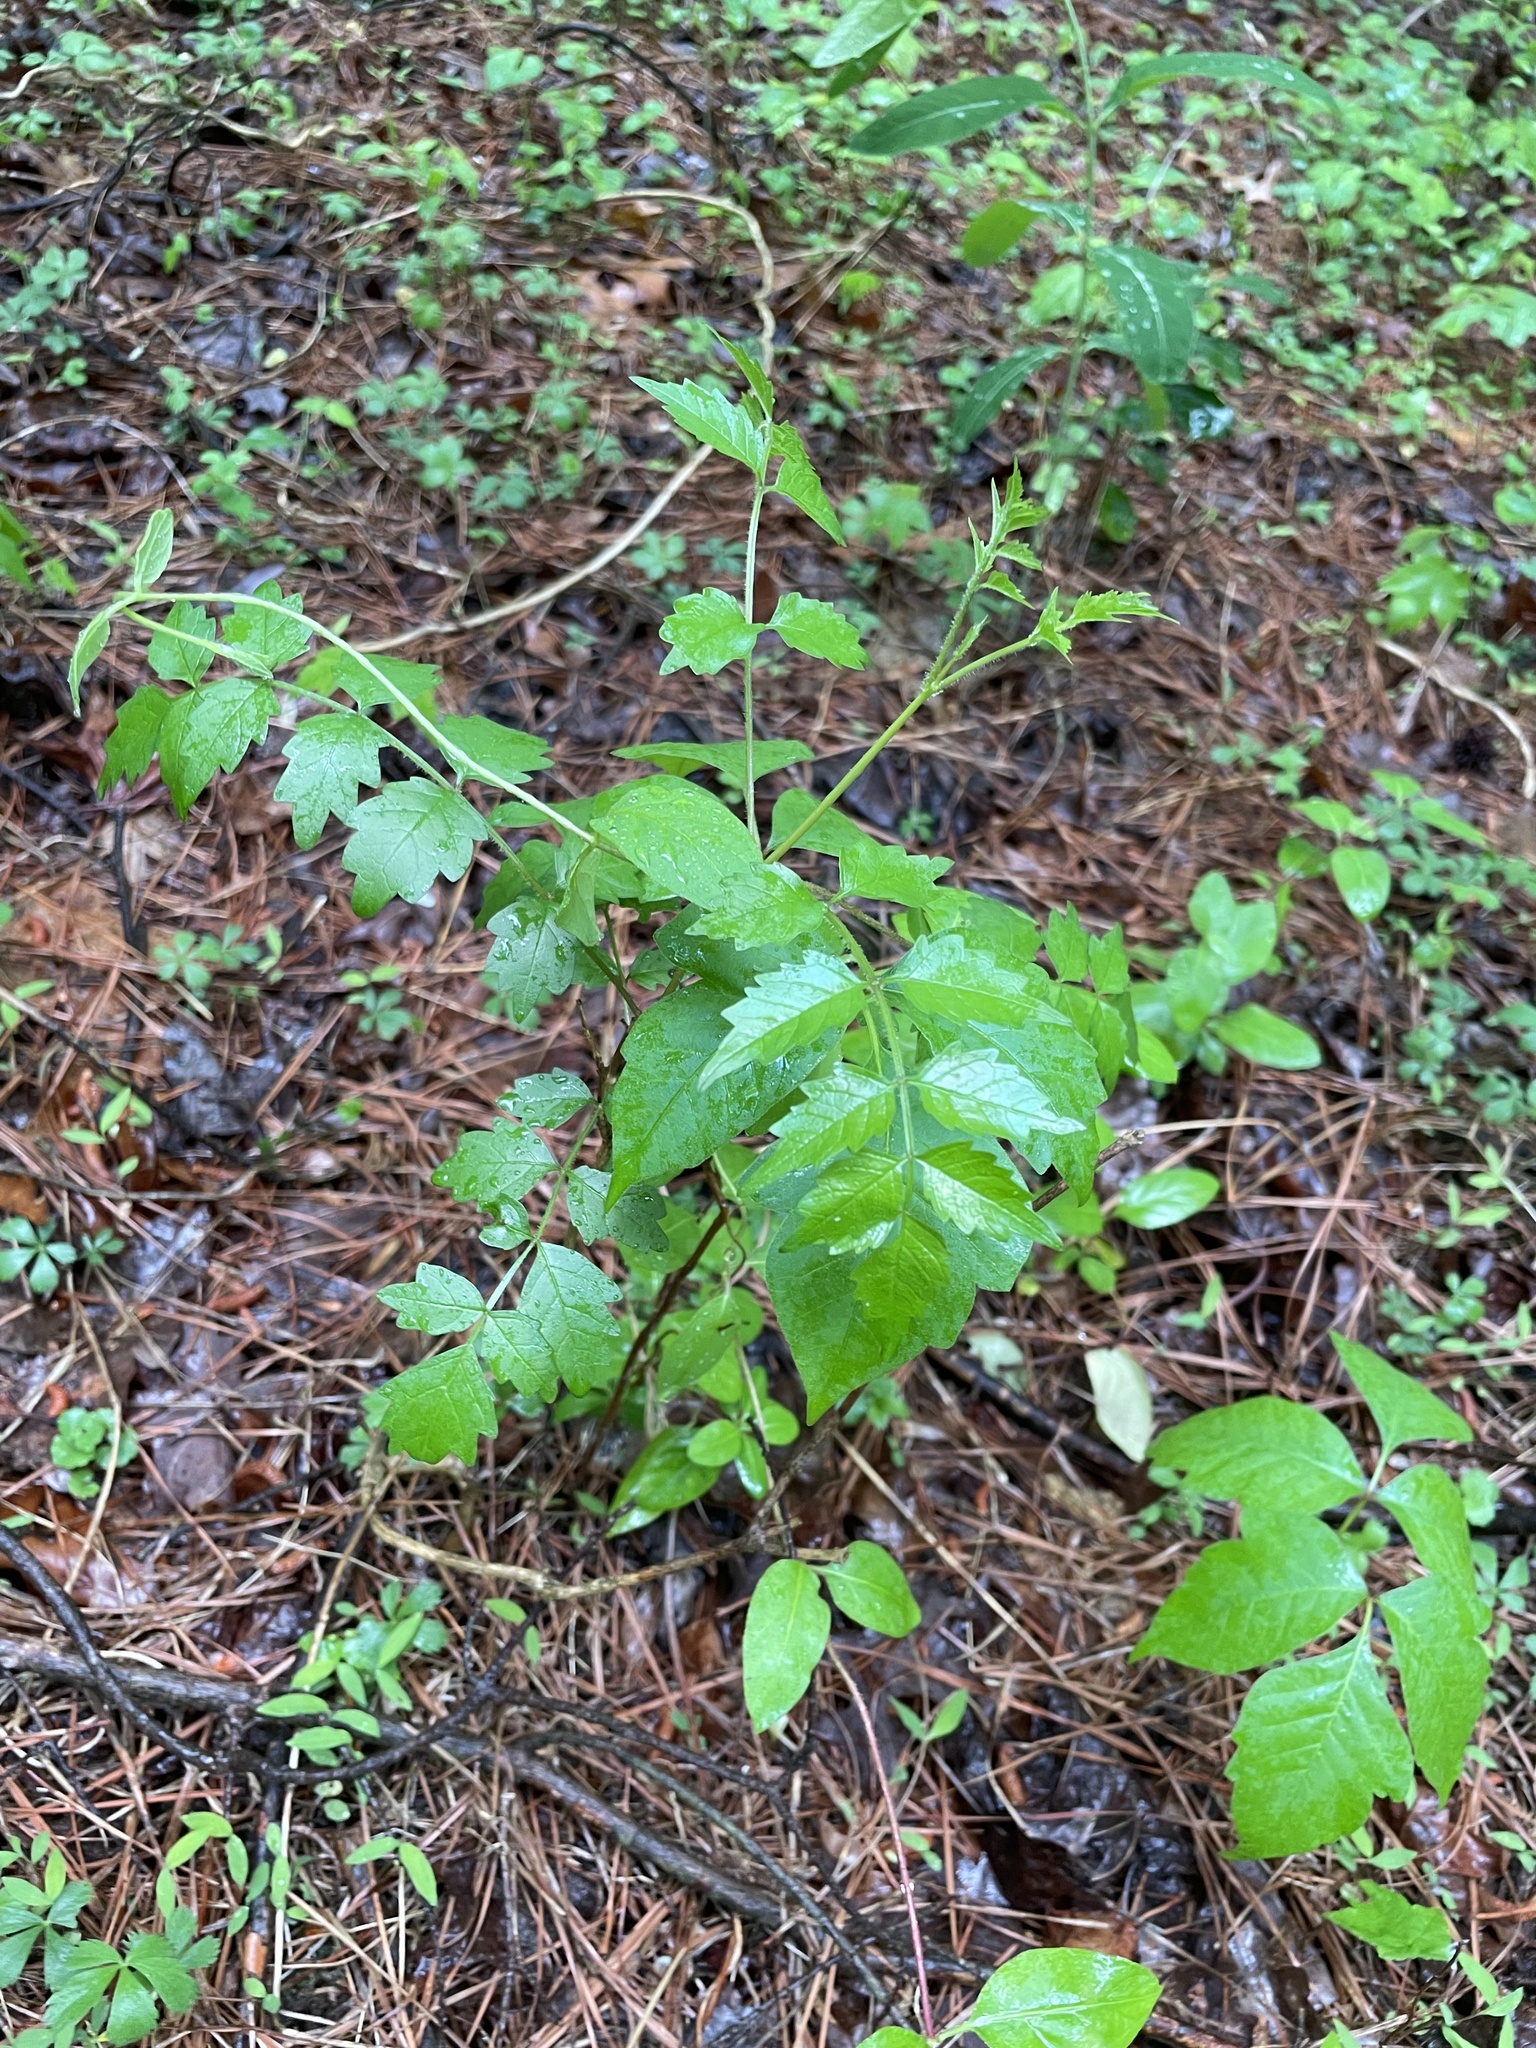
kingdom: Plantae
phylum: Tracheophyta
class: Magnoliopsida
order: Lamiales
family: Bignoniaceae
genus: Campsis
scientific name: Campsis radicans
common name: Trumpet-creeper
